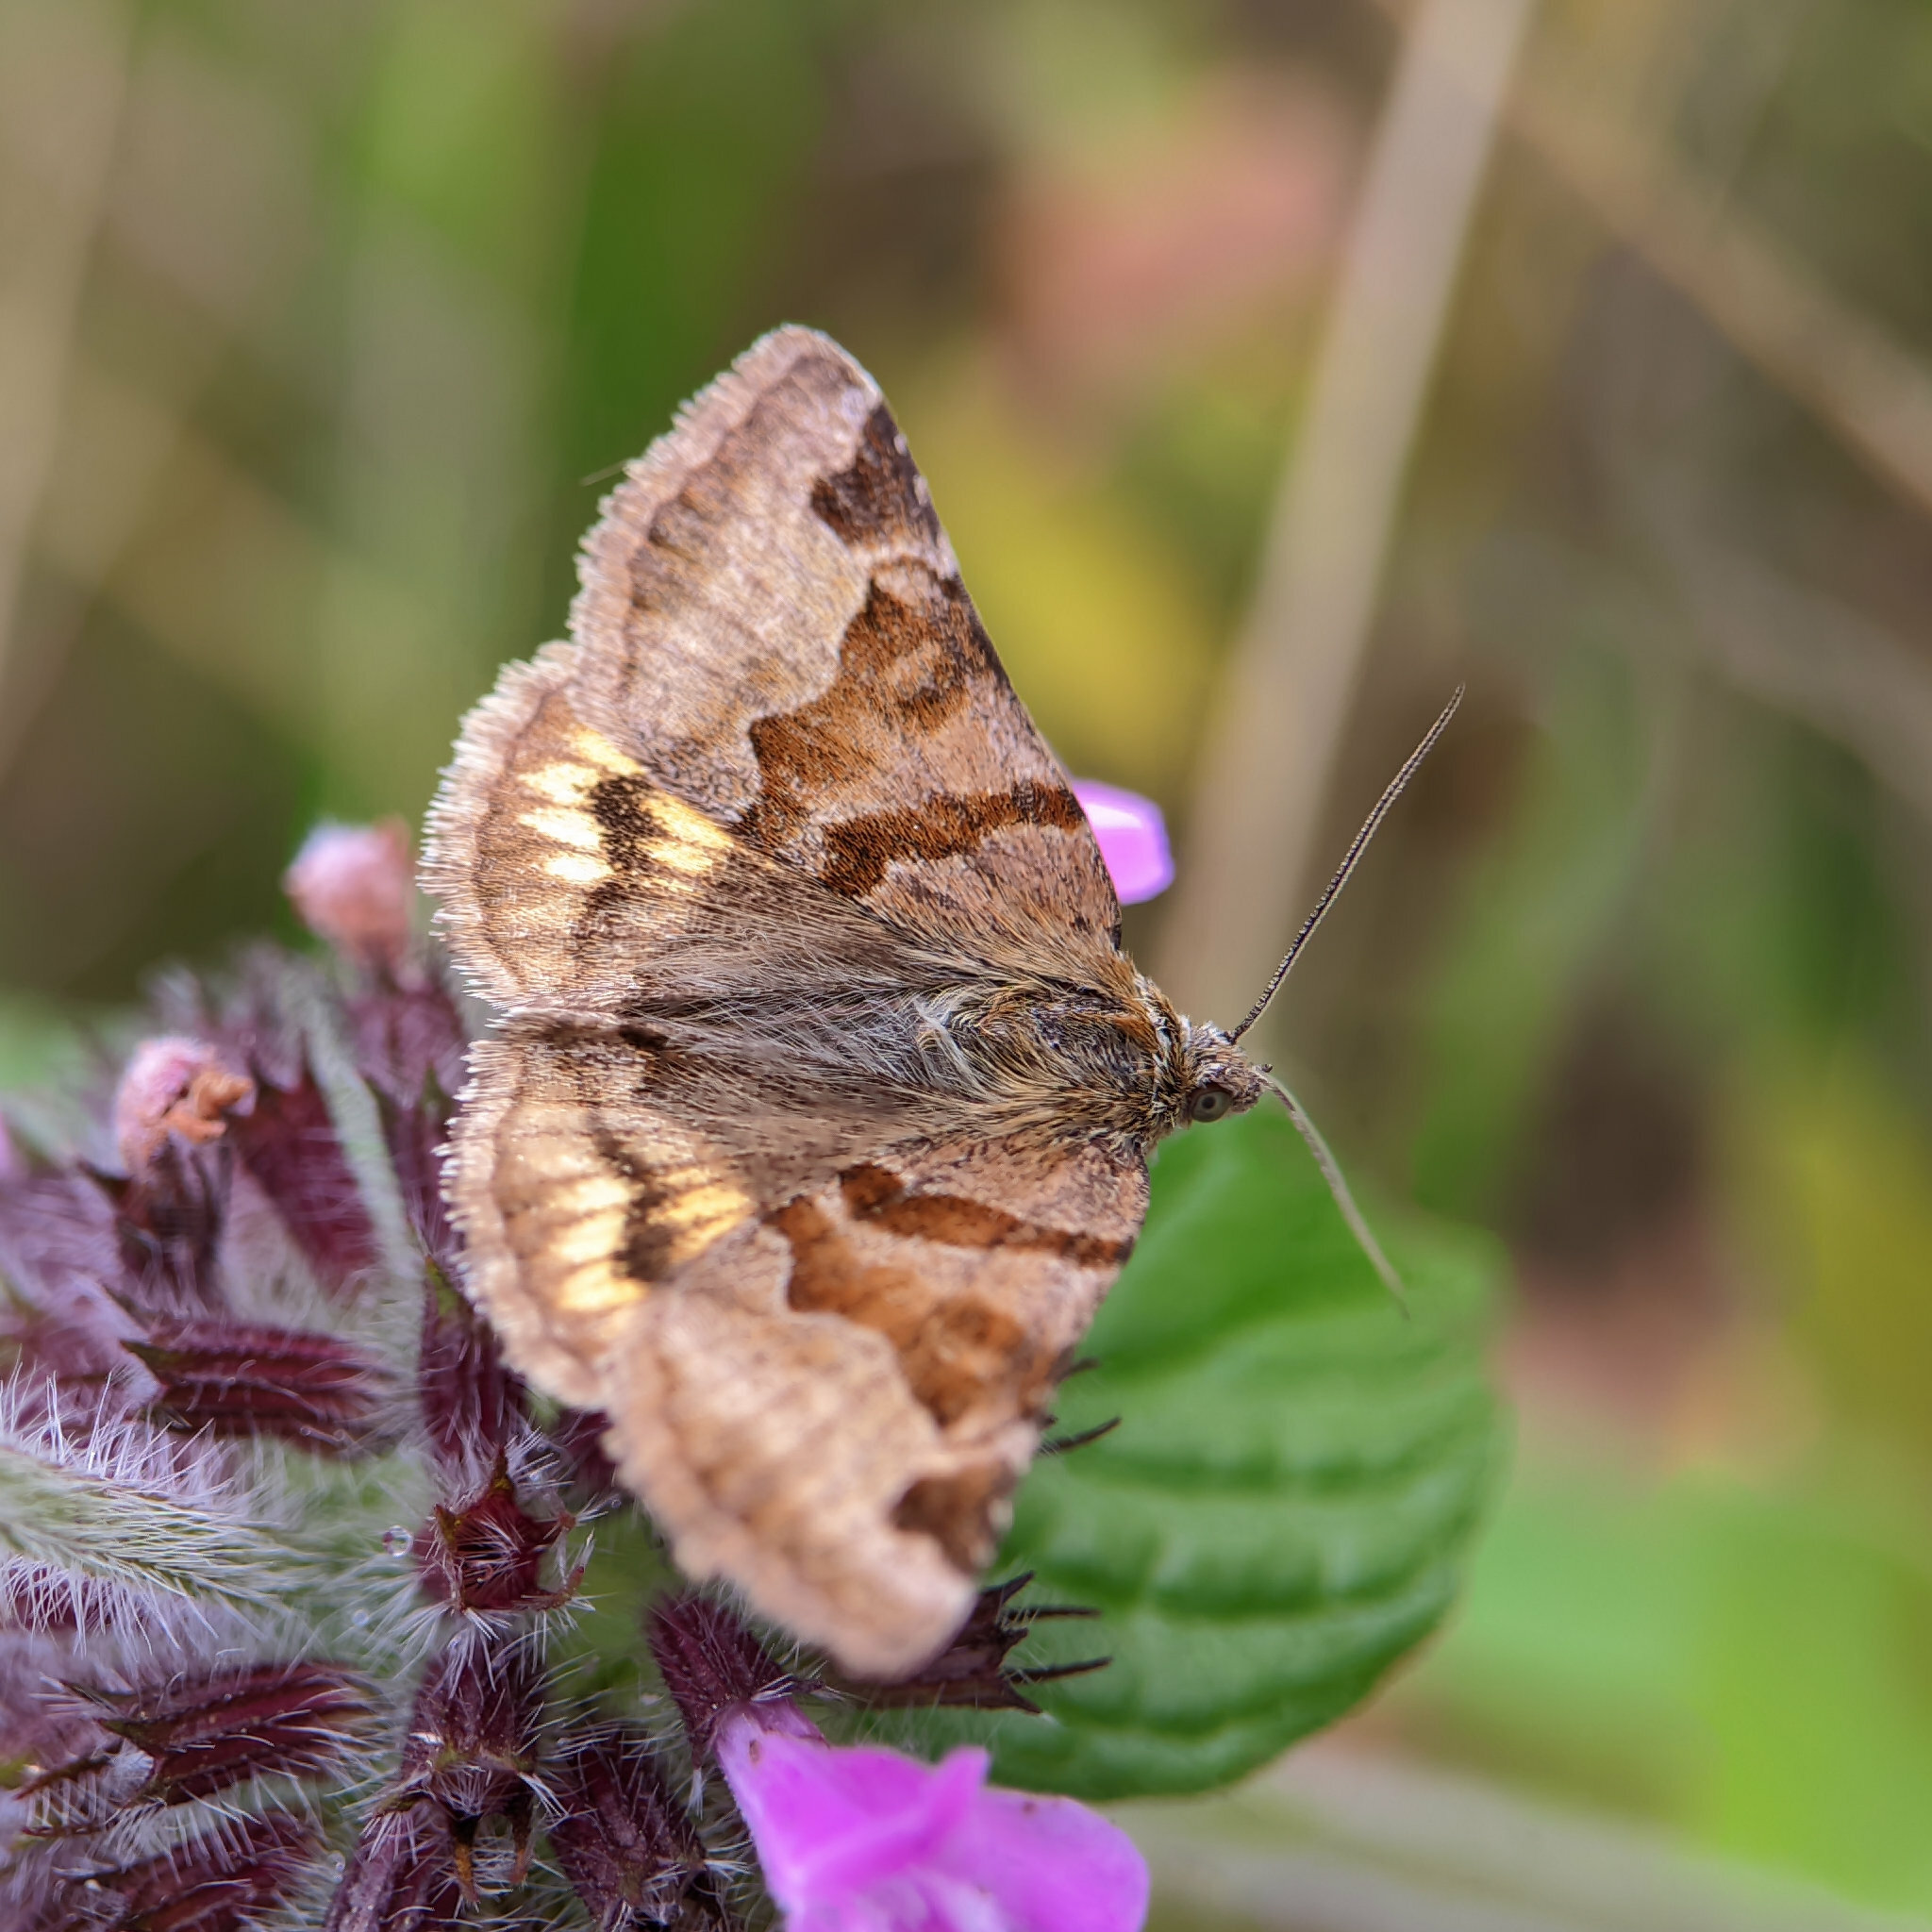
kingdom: Animalia
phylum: Arthropoda
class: Insecta
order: Lepidoptera
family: Erebidae
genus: Euclidia
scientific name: Euclidia glyphica
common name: Burnet companion
